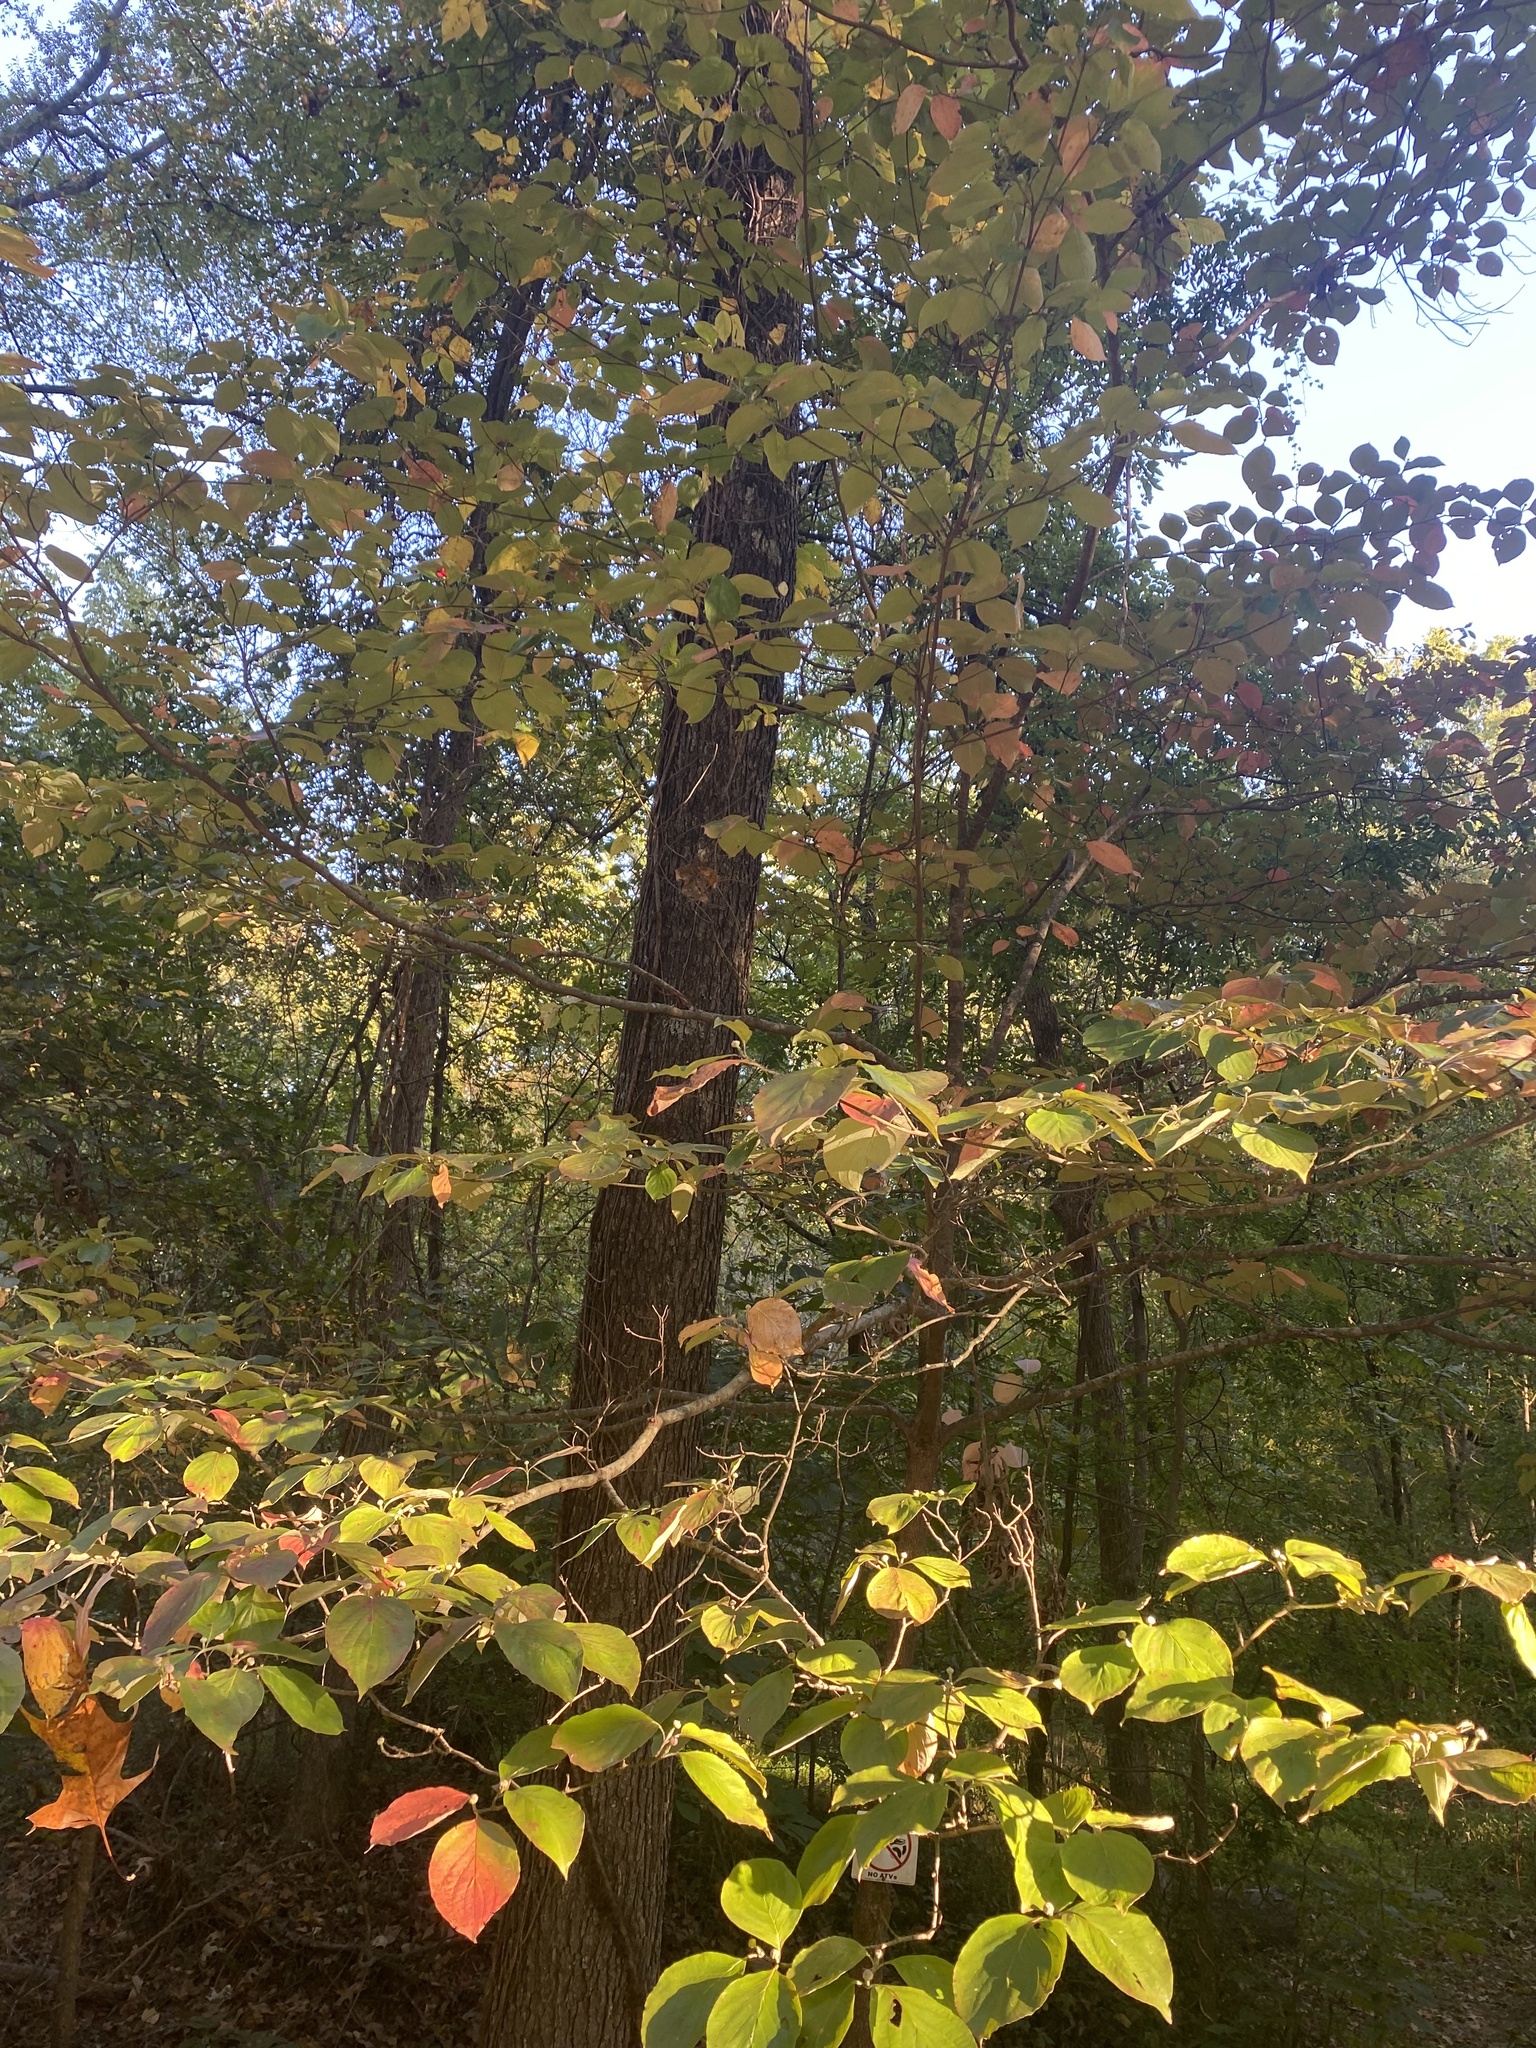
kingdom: Plantae
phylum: Tracheophyta
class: Magnoliopsida
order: Cornales
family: Cornaceae
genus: Cornus
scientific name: Cornus florida
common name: Flowering dogwood
